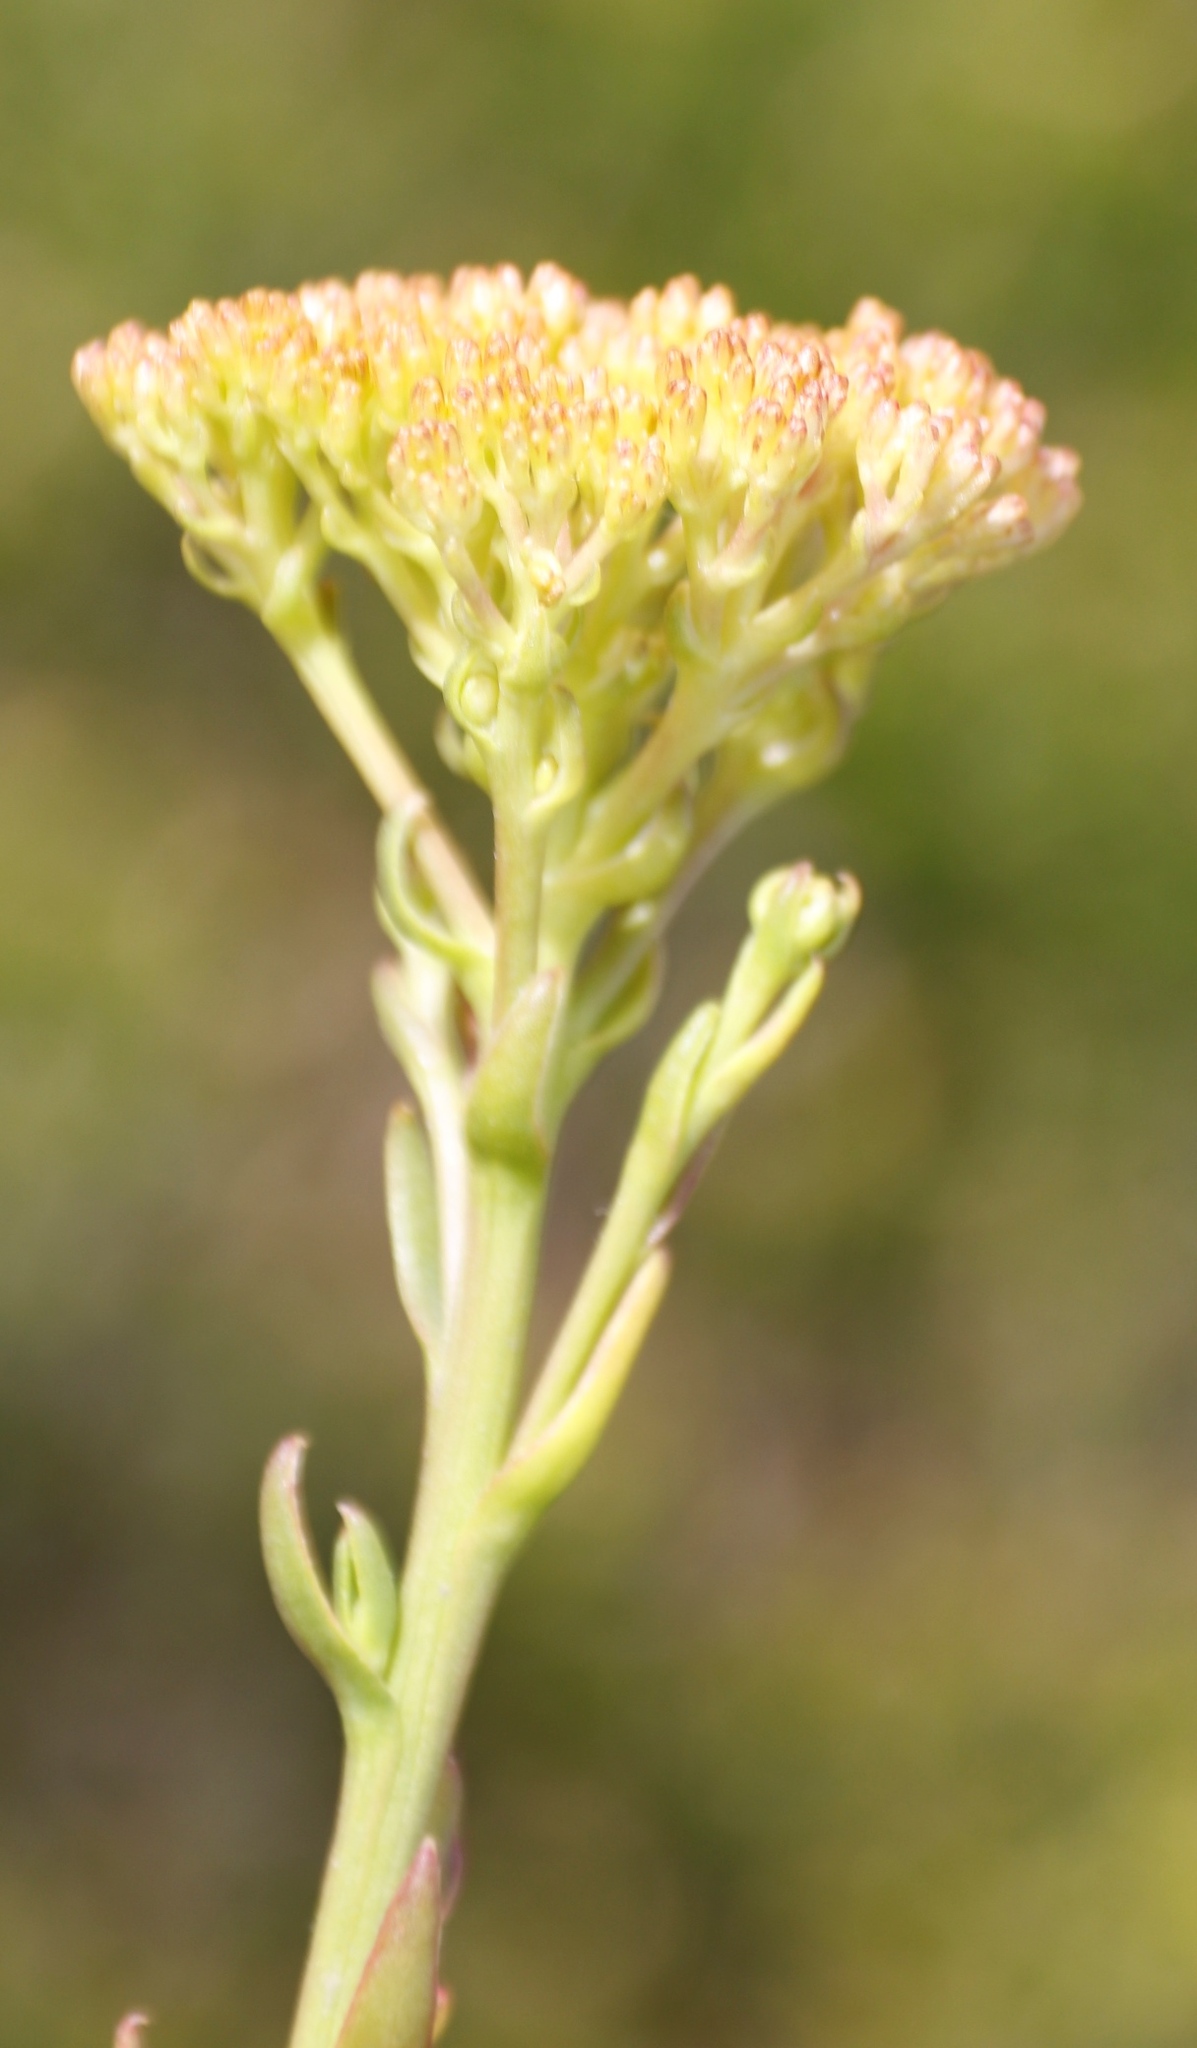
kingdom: Plantae
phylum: Tracheophyta
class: Magnoliopsida
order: Asterales
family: Asteraceae
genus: Athanasia
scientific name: Athanasia juncea
